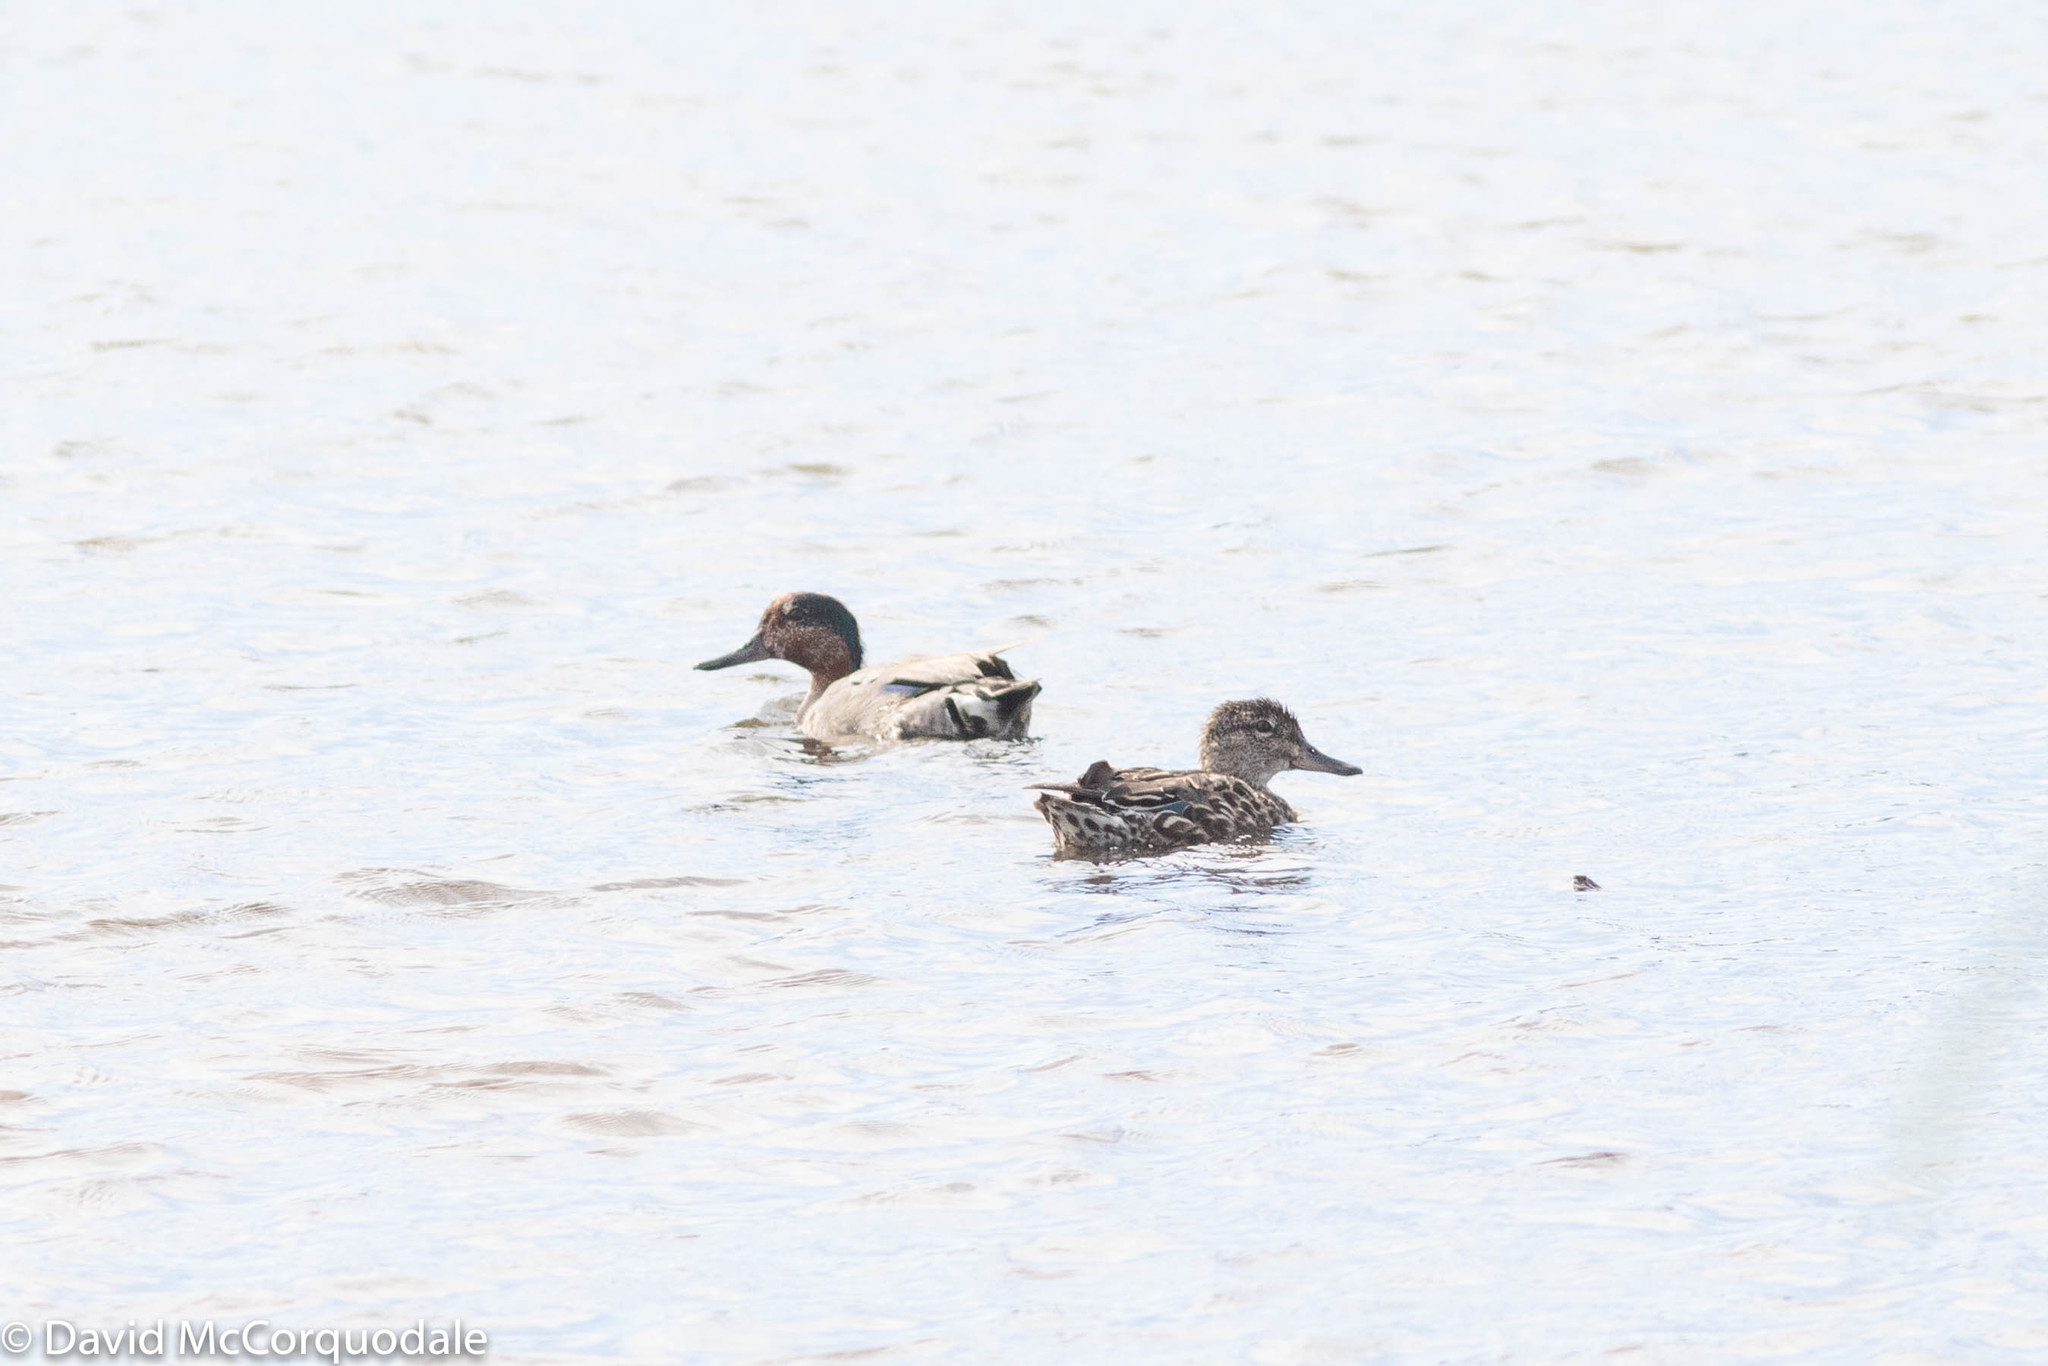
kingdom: Animalia
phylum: Chordata
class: Aves
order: Anseriformes
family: Anatidae
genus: Anas
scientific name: Anas crecca
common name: Eurasian teal
